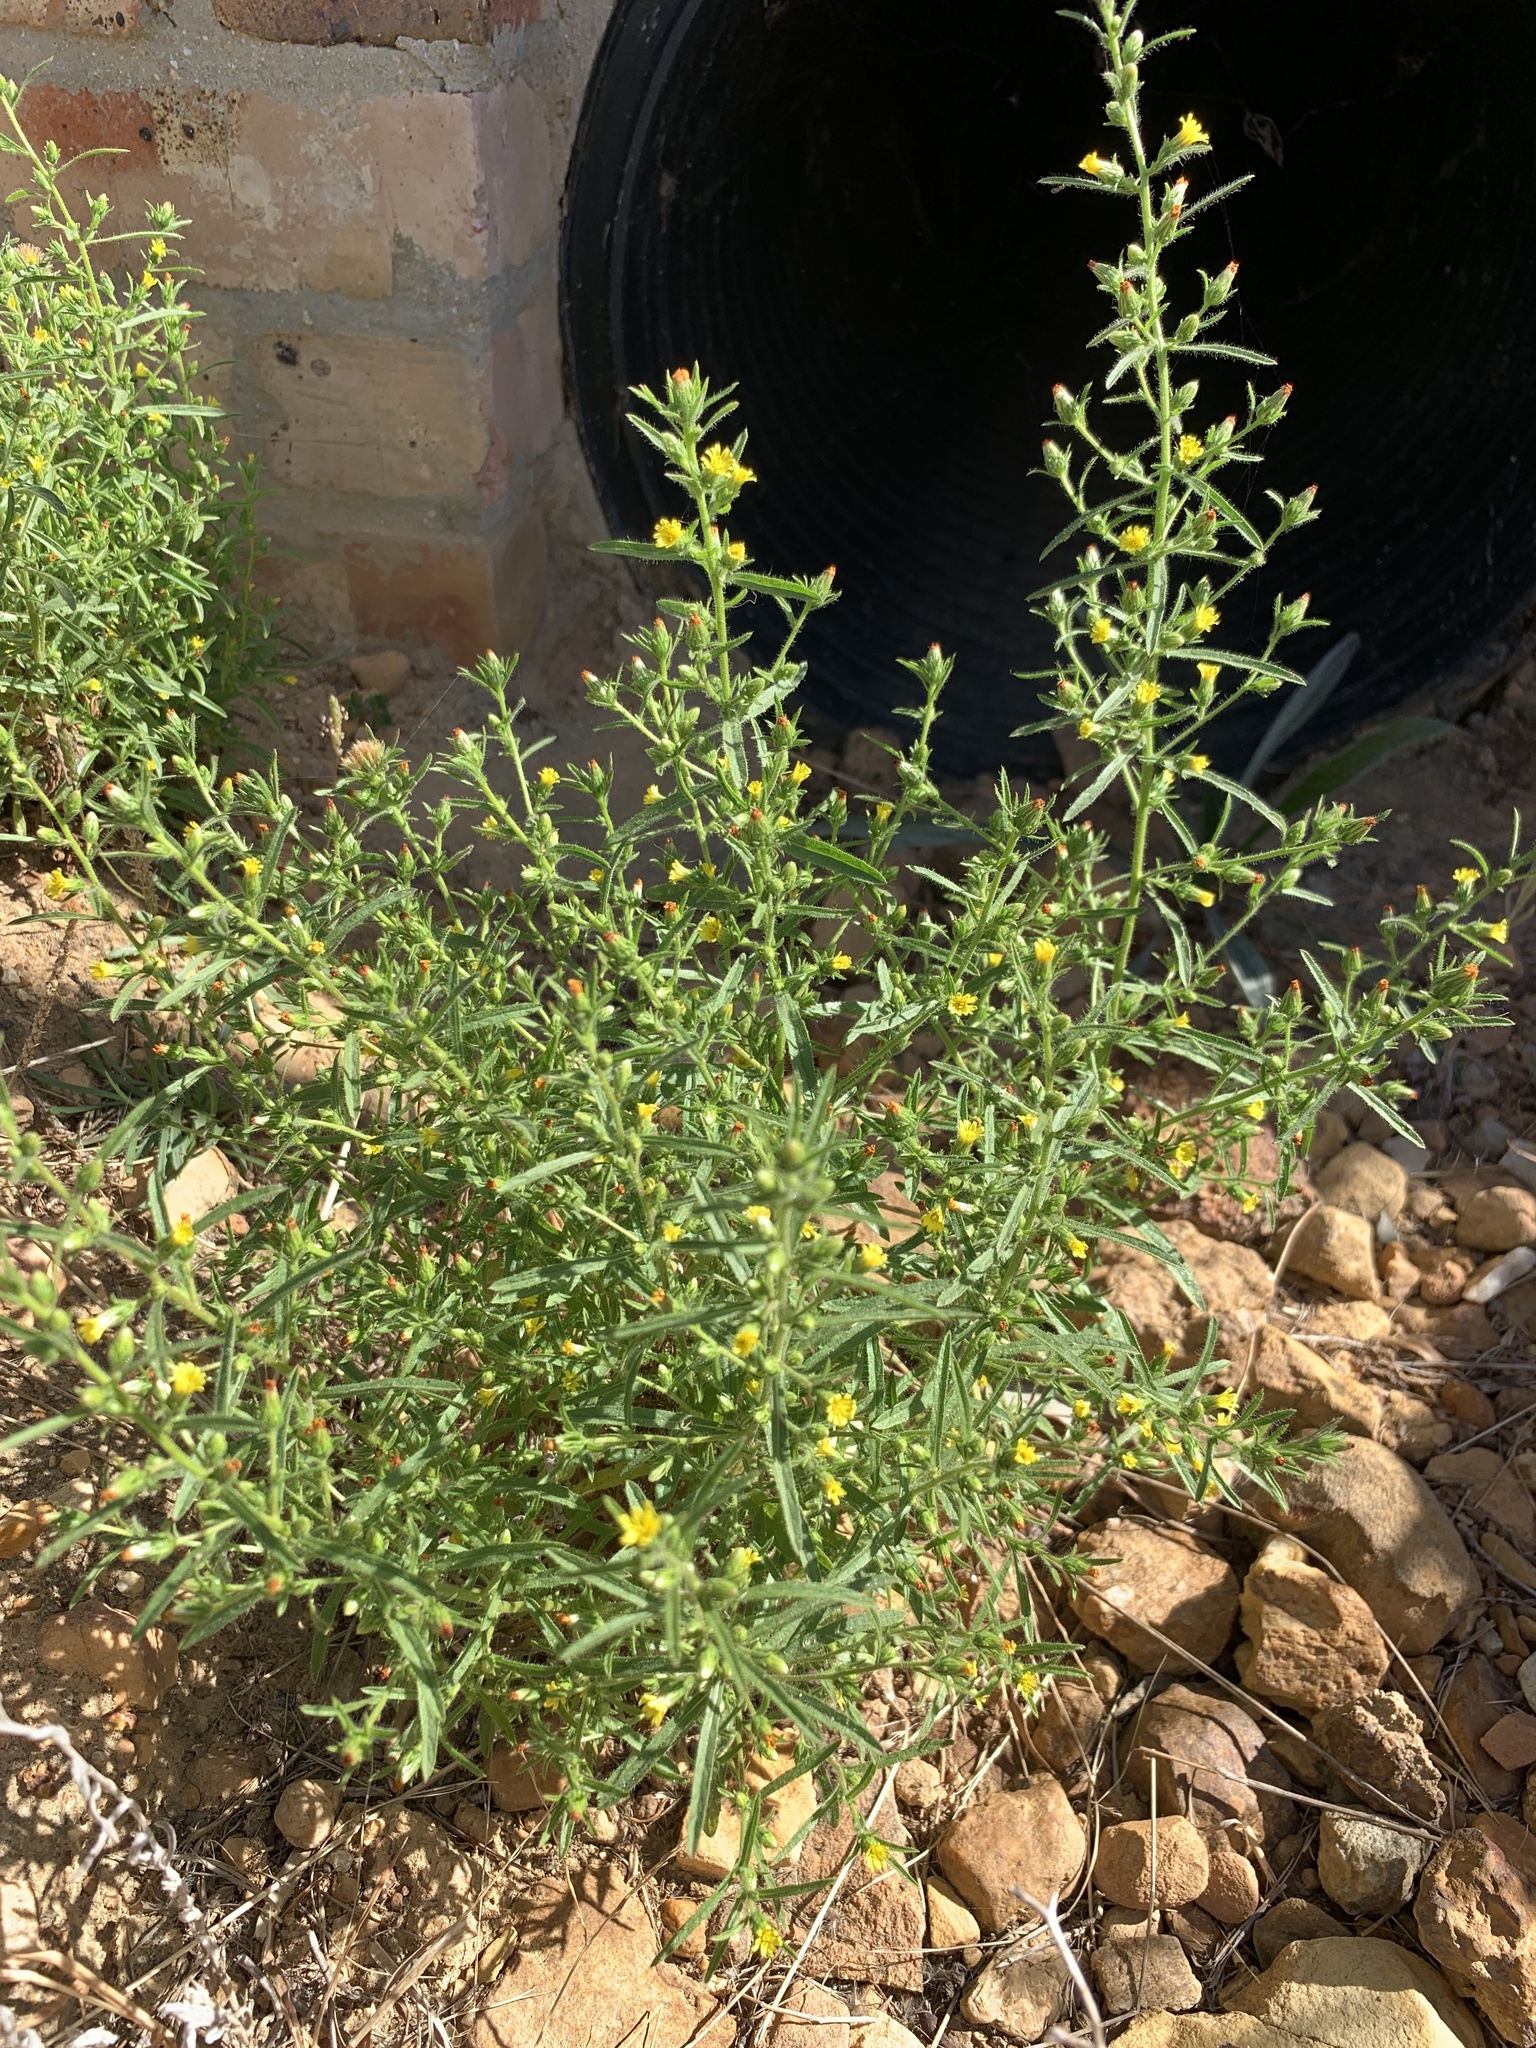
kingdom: Plantae
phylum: Tracheophyta
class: Magnoliopsida
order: Asterales
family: Asteraceae
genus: Dittrichia
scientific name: Dittrichia graveolens
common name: Stinking fleabane
